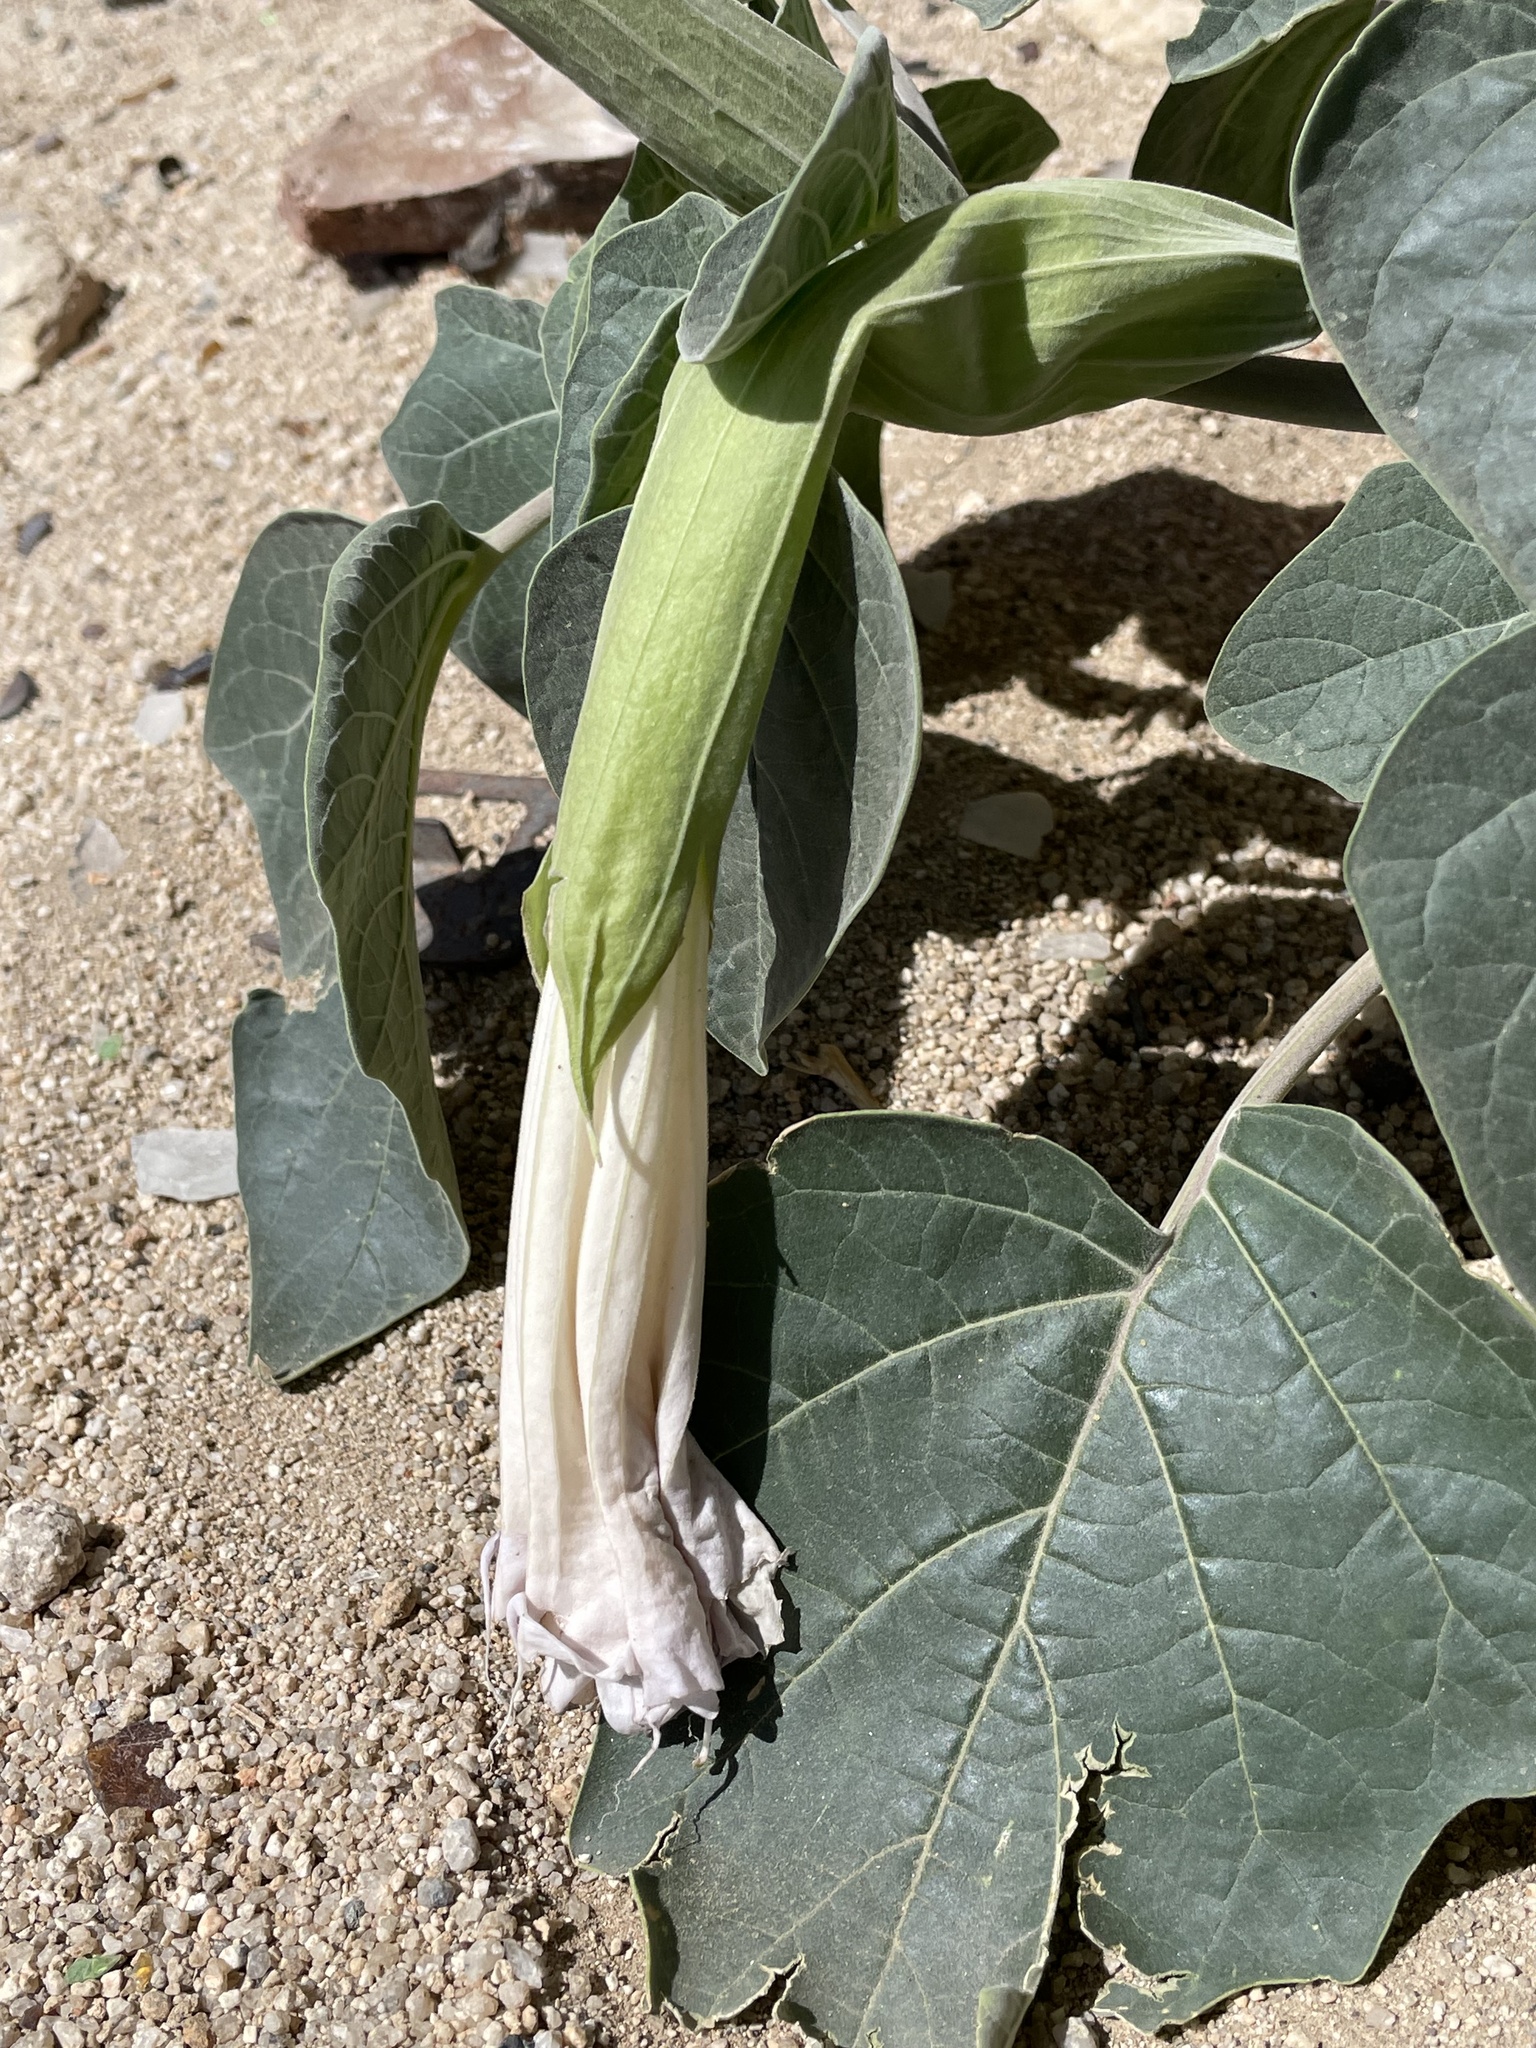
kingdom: Plantae
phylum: Tracheophyta
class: Magnoliopsida
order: Solanales
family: Solanaceae
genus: Datura
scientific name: Datura wrightii
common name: Sacred thorn-apple
